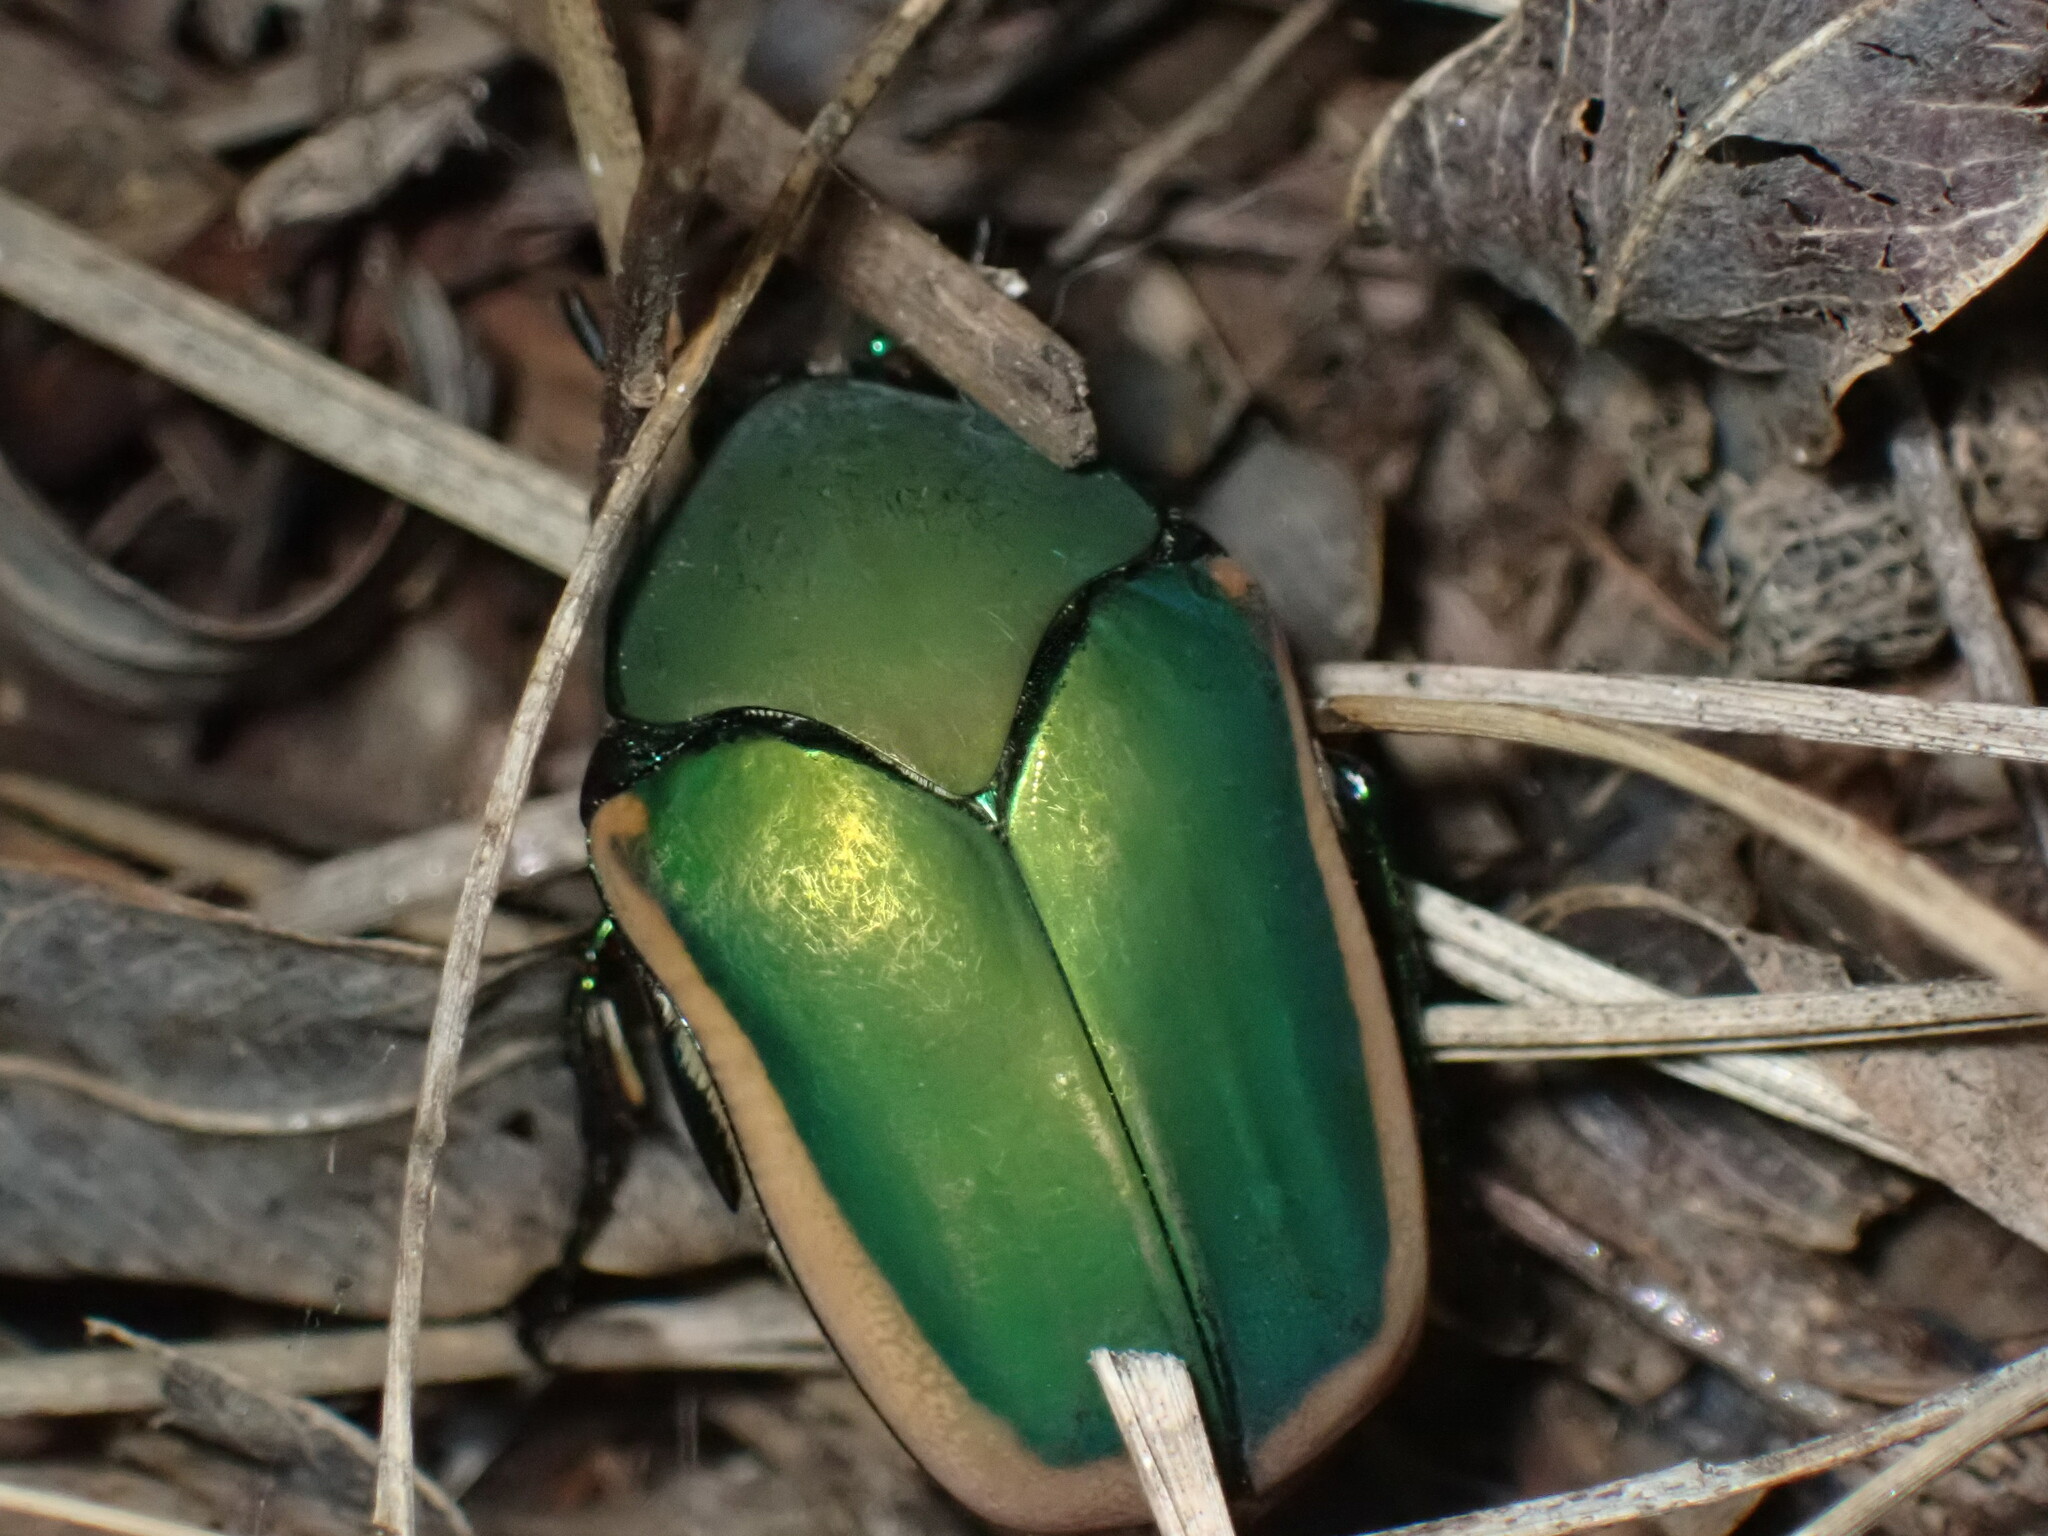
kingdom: Animalia
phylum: Arthropoda
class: Insecta
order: Coleoptera
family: Scarabaeidae
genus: Cotinis
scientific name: Cotinis mutabilis
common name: Figeater beetle
